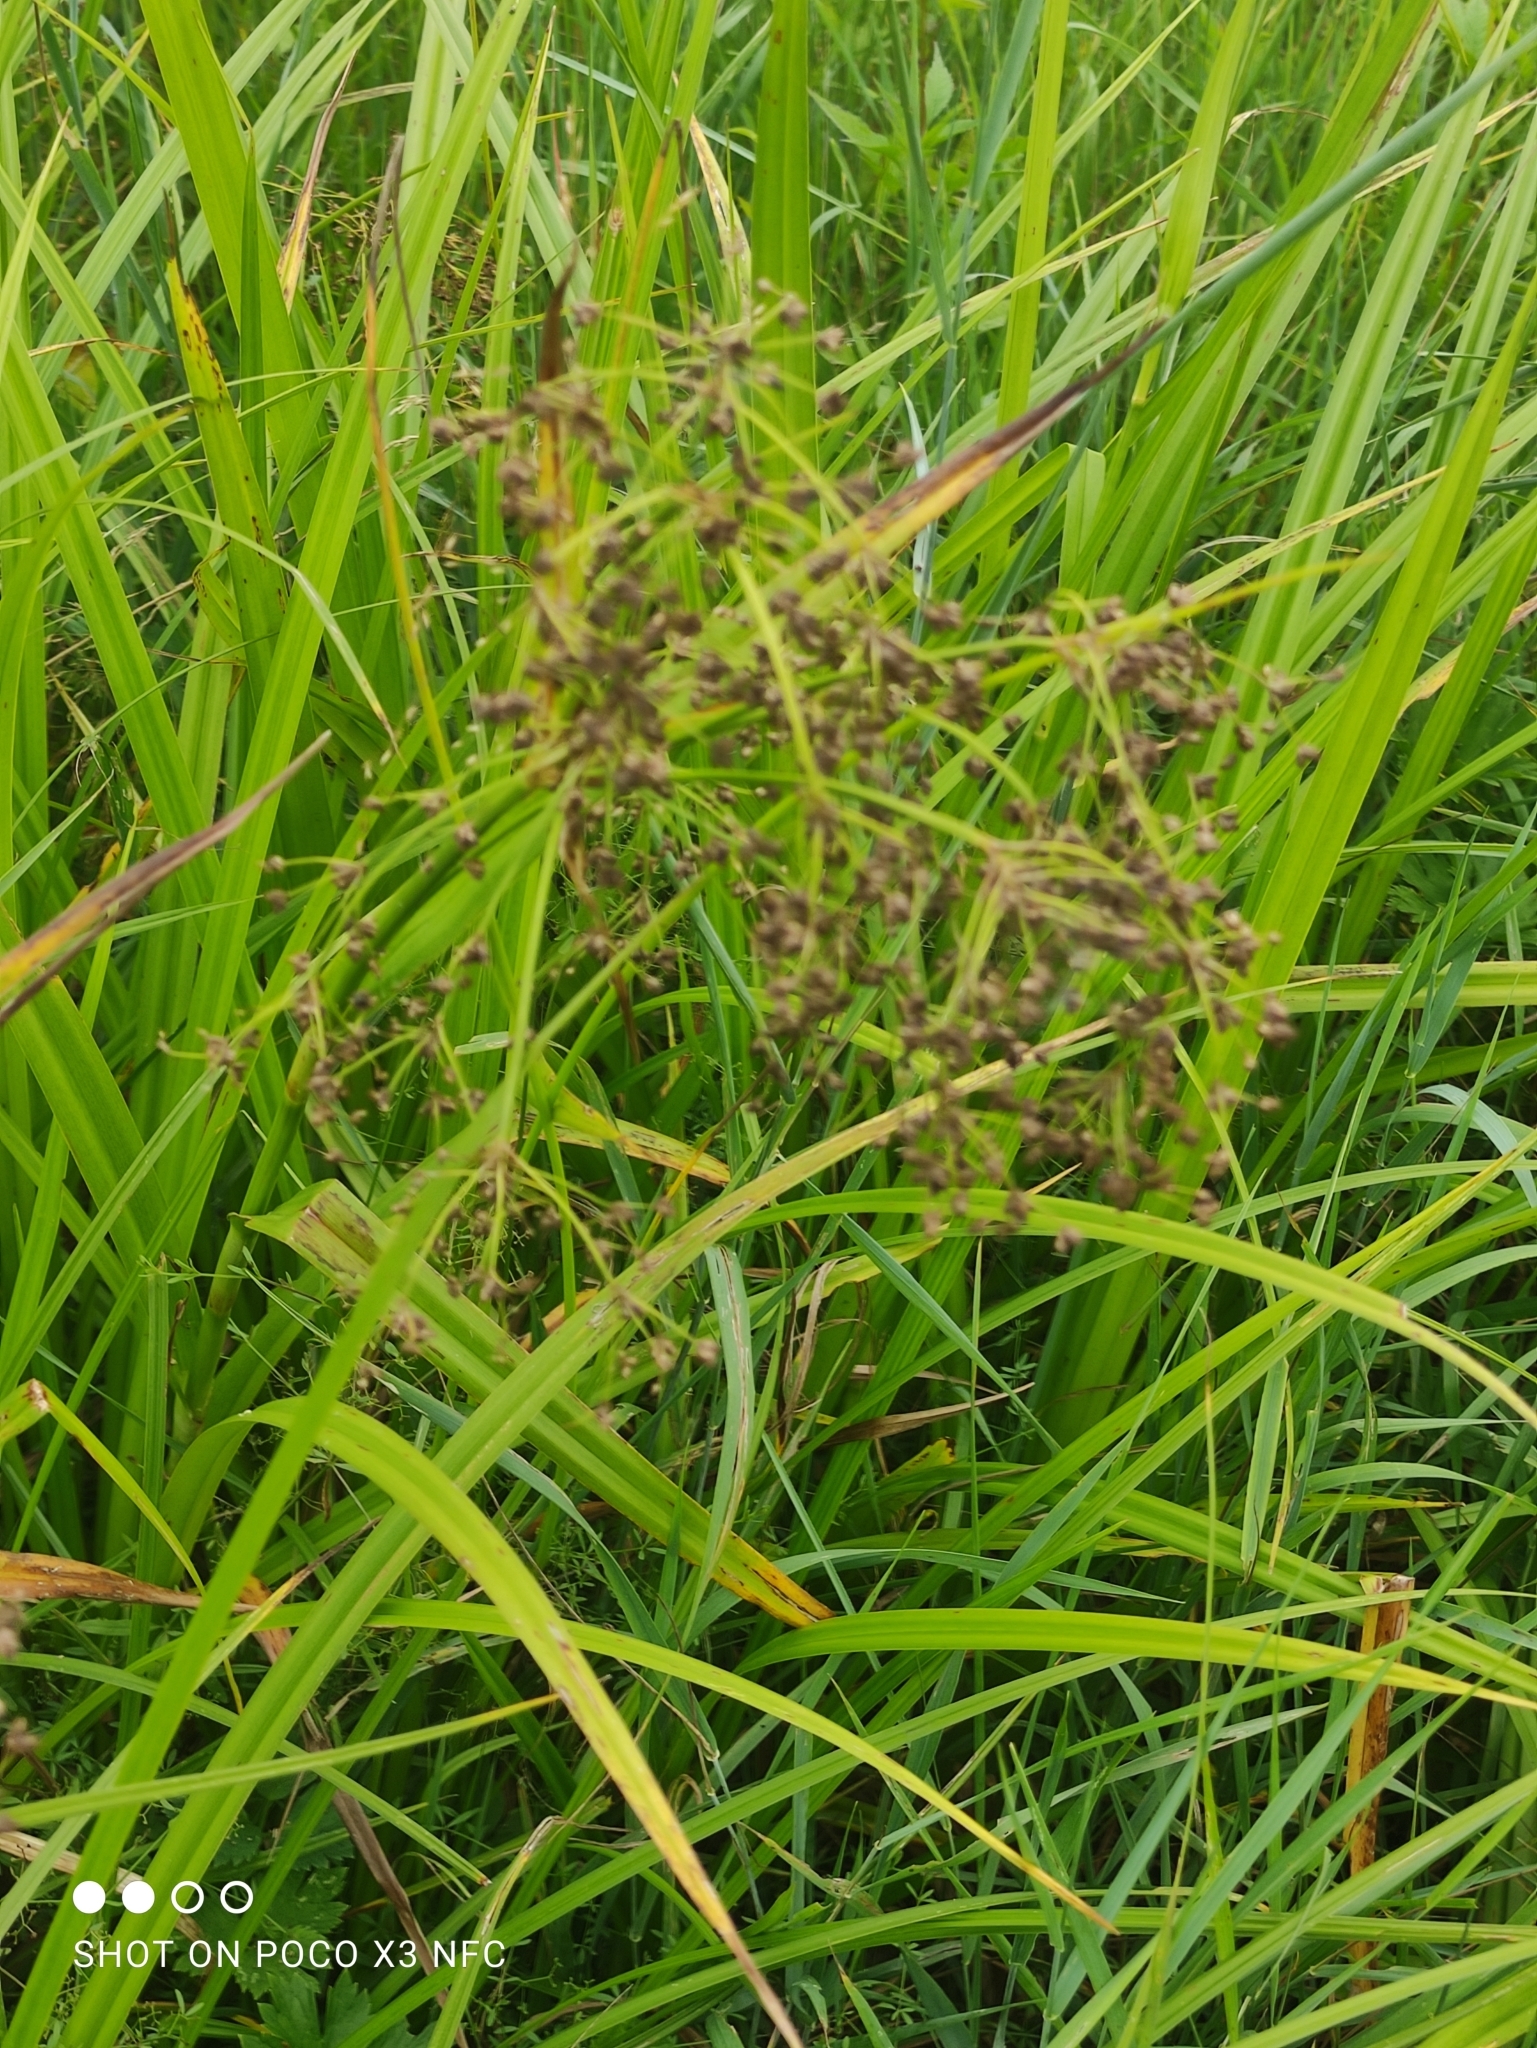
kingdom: Plantae
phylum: Tracheophyta
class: Liliopsida
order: Poales
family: Cyperaceae
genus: Scirpus
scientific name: Scirpus sylvaticus
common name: Wood club-rush
